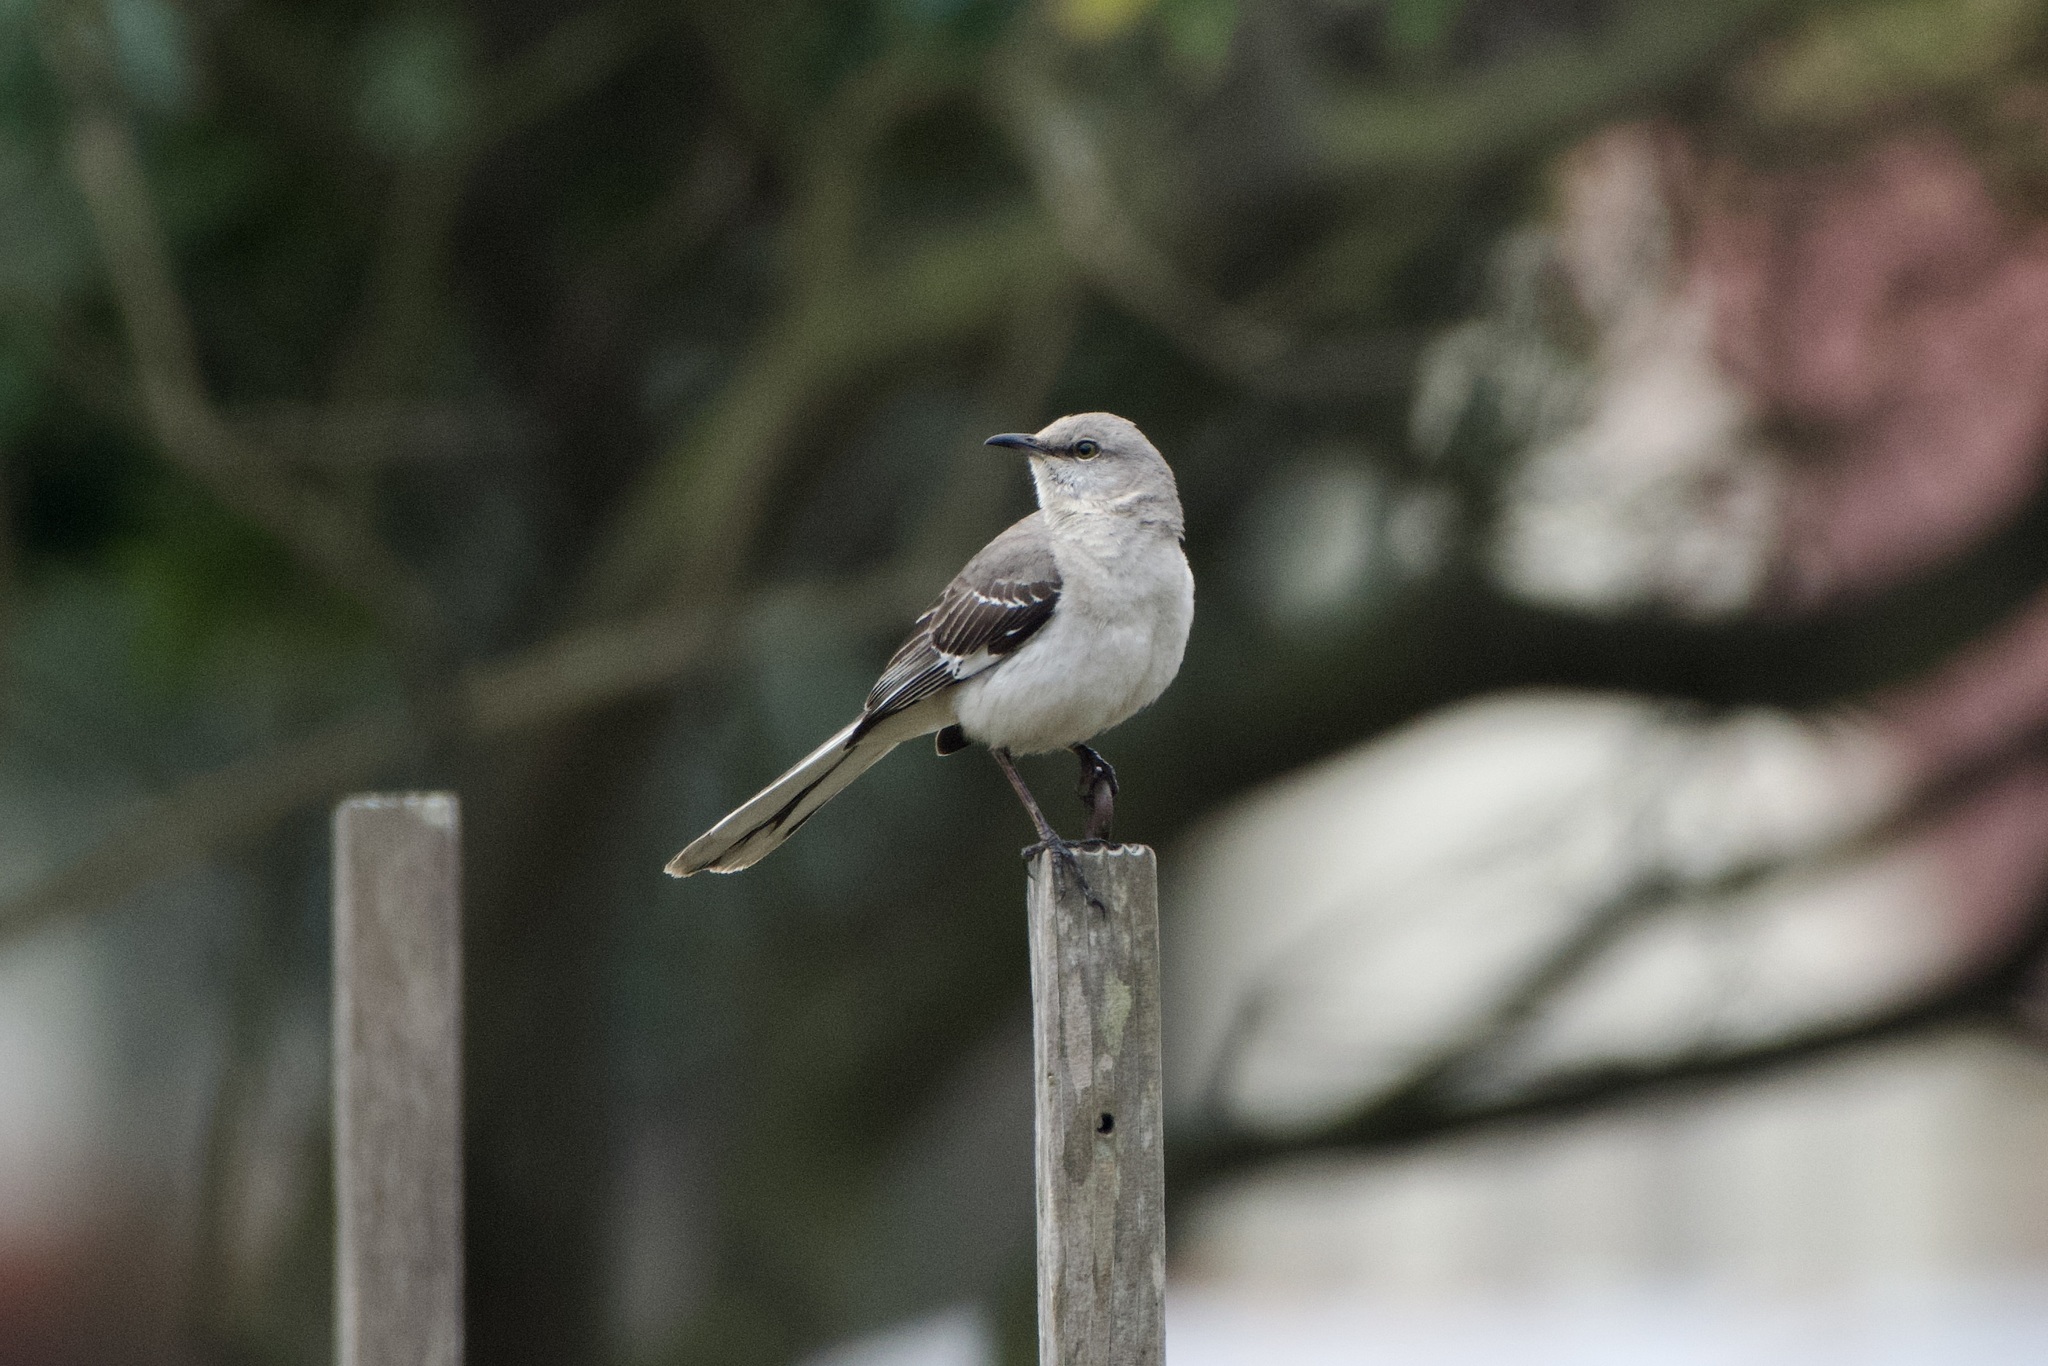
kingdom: Animalia
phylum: Chordata
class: Aves
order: Passeriformes
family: Mimidae
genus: Mimus
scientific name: Mimus polyglottos
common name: Northern mockingbird
